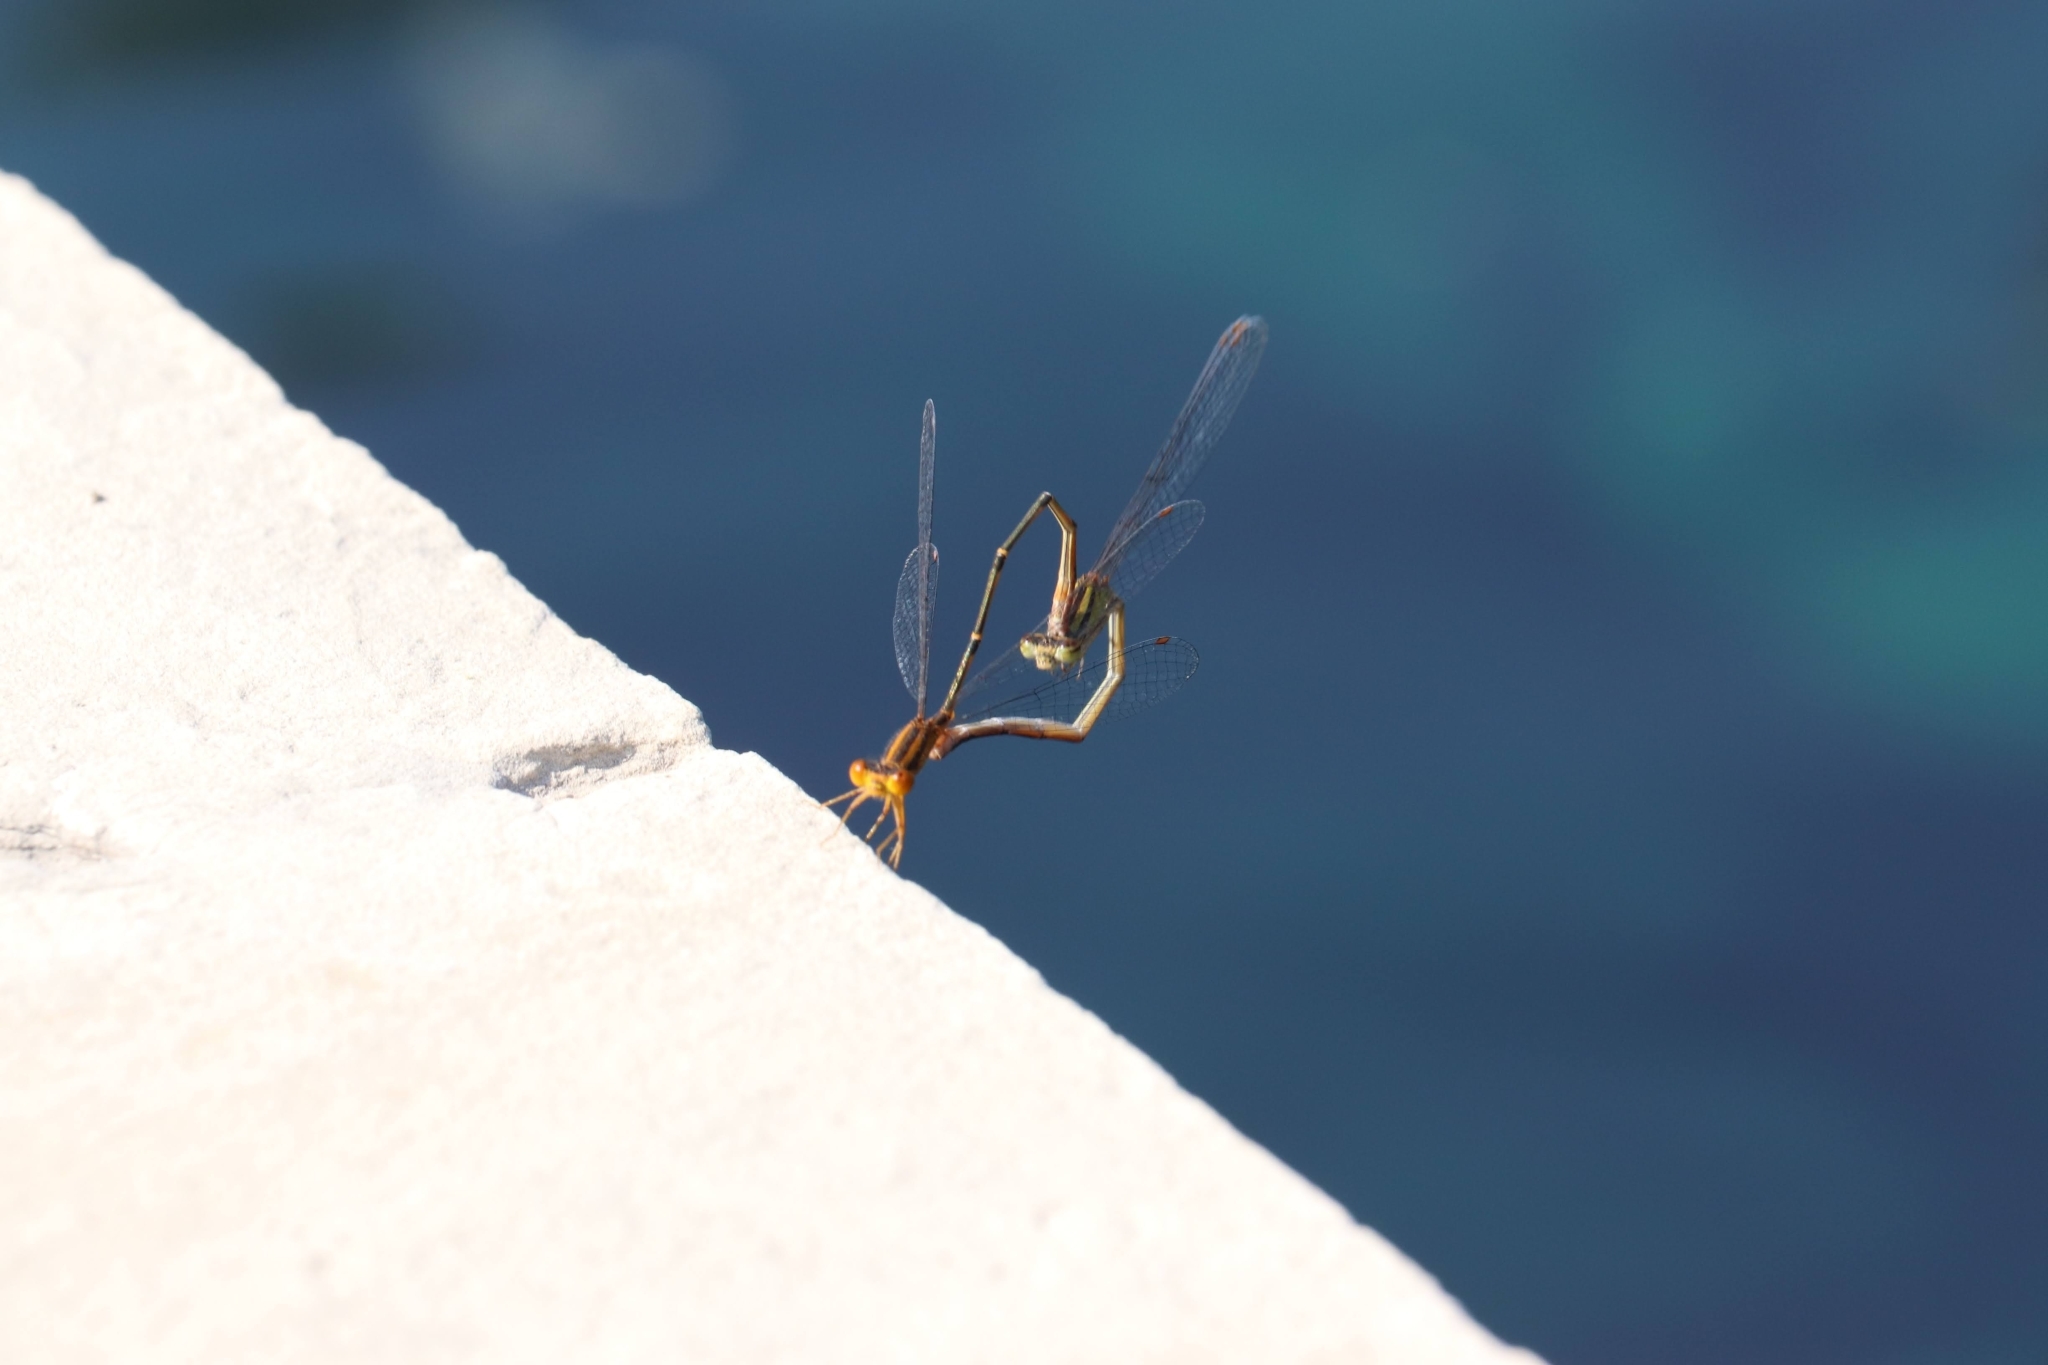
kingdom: Animalia
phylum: Arthropoda
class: Insecta
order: Odonata
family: Coenagrionidae
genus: Enallagma
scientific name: Enallagma signatum
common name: Orange bluet
